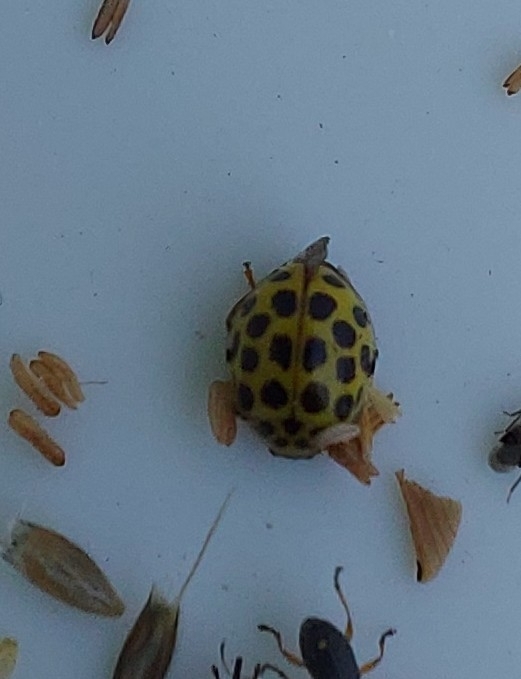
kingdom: Animalia
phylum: Arthropoda
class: Insecta
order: Coleoptera
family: Coccinellidae
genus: Psyllobora
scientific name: Psyllobora vigintiduopunctata
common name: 22-spot ladybird
